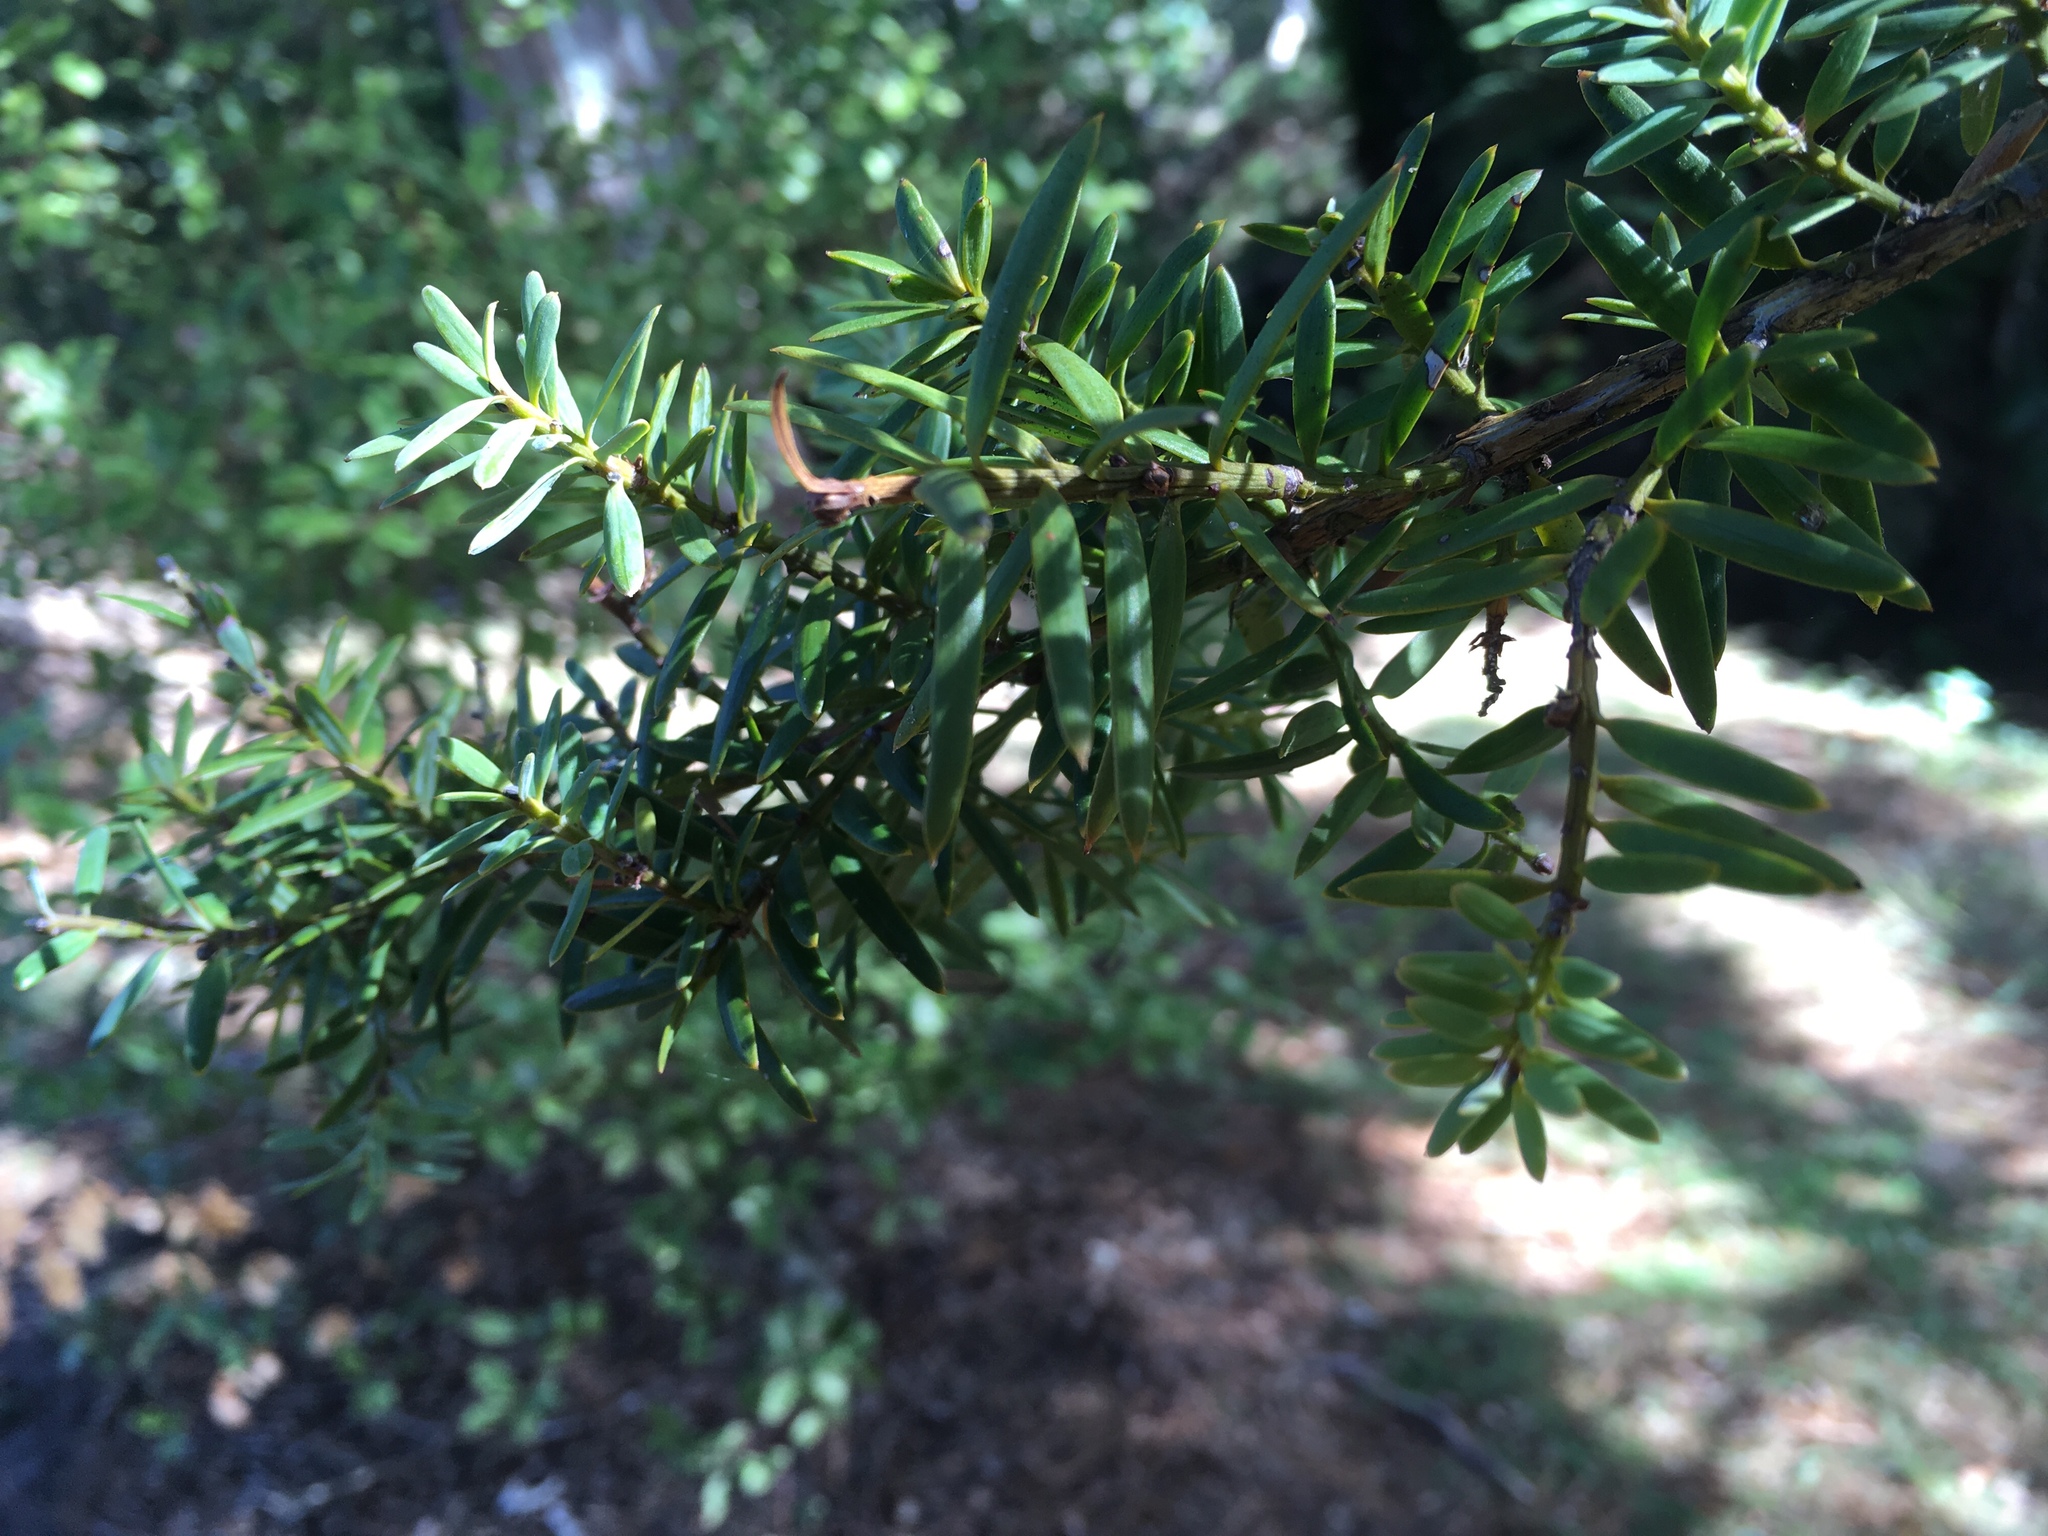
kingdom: Plantae
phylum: Tracheophyta
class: Pinopsida
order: Pinales
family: Podocarpaceae
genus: Podocarpus
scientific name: Podocarpus totara
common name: Totara
